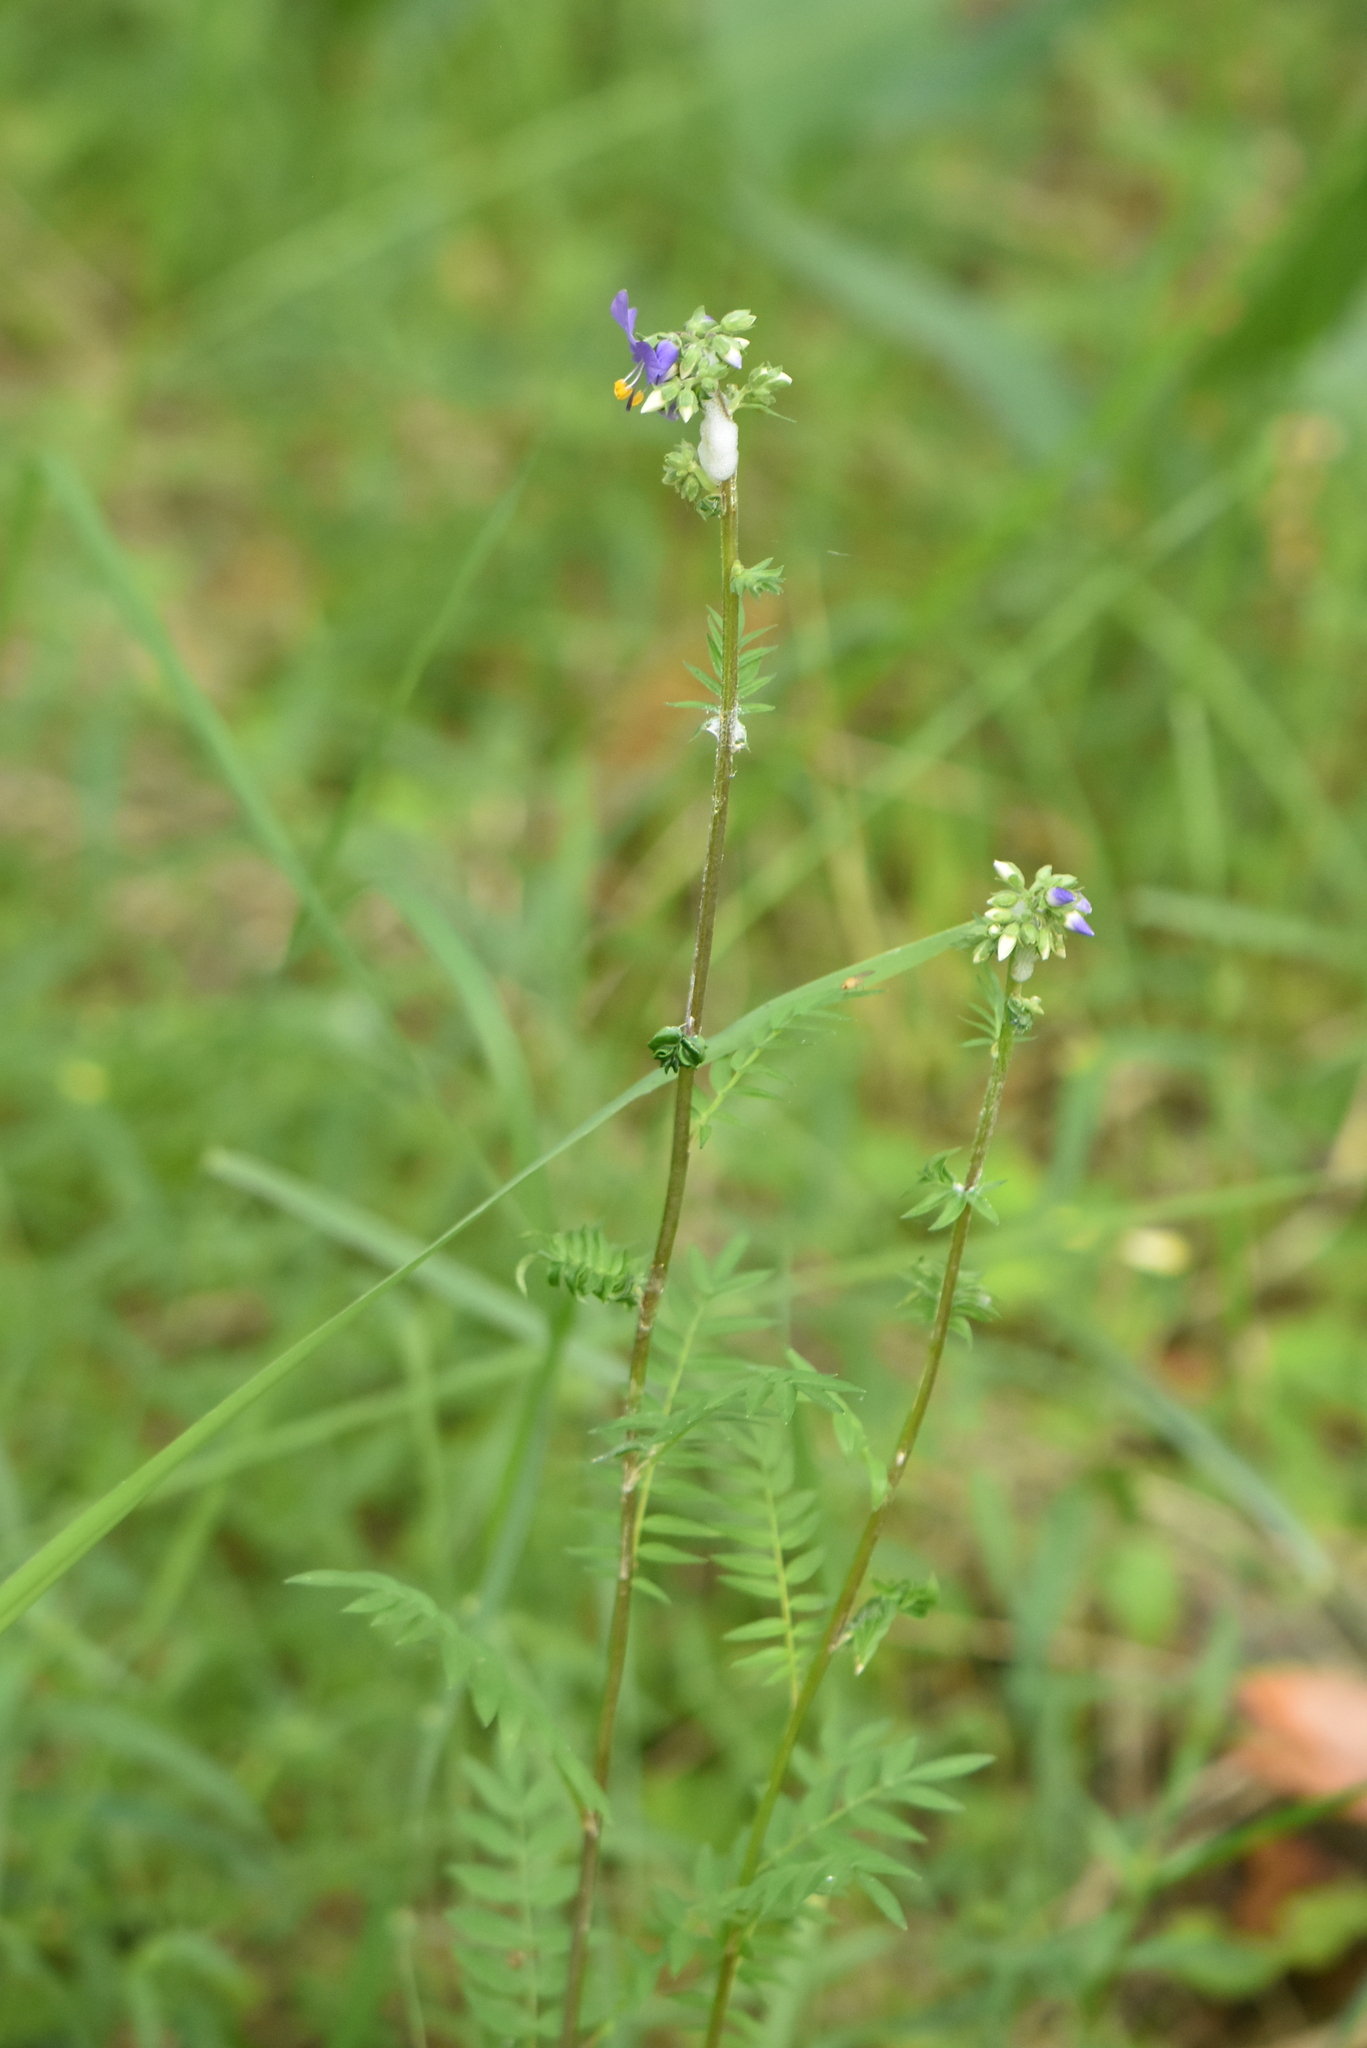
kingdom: Plantae
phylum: Tracheophyta
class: Magnoliopsida
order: Ericales
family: Polemoniaceae
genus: Polemonium
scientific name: Polemonium caeruleum
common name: Jacob's-ladder
